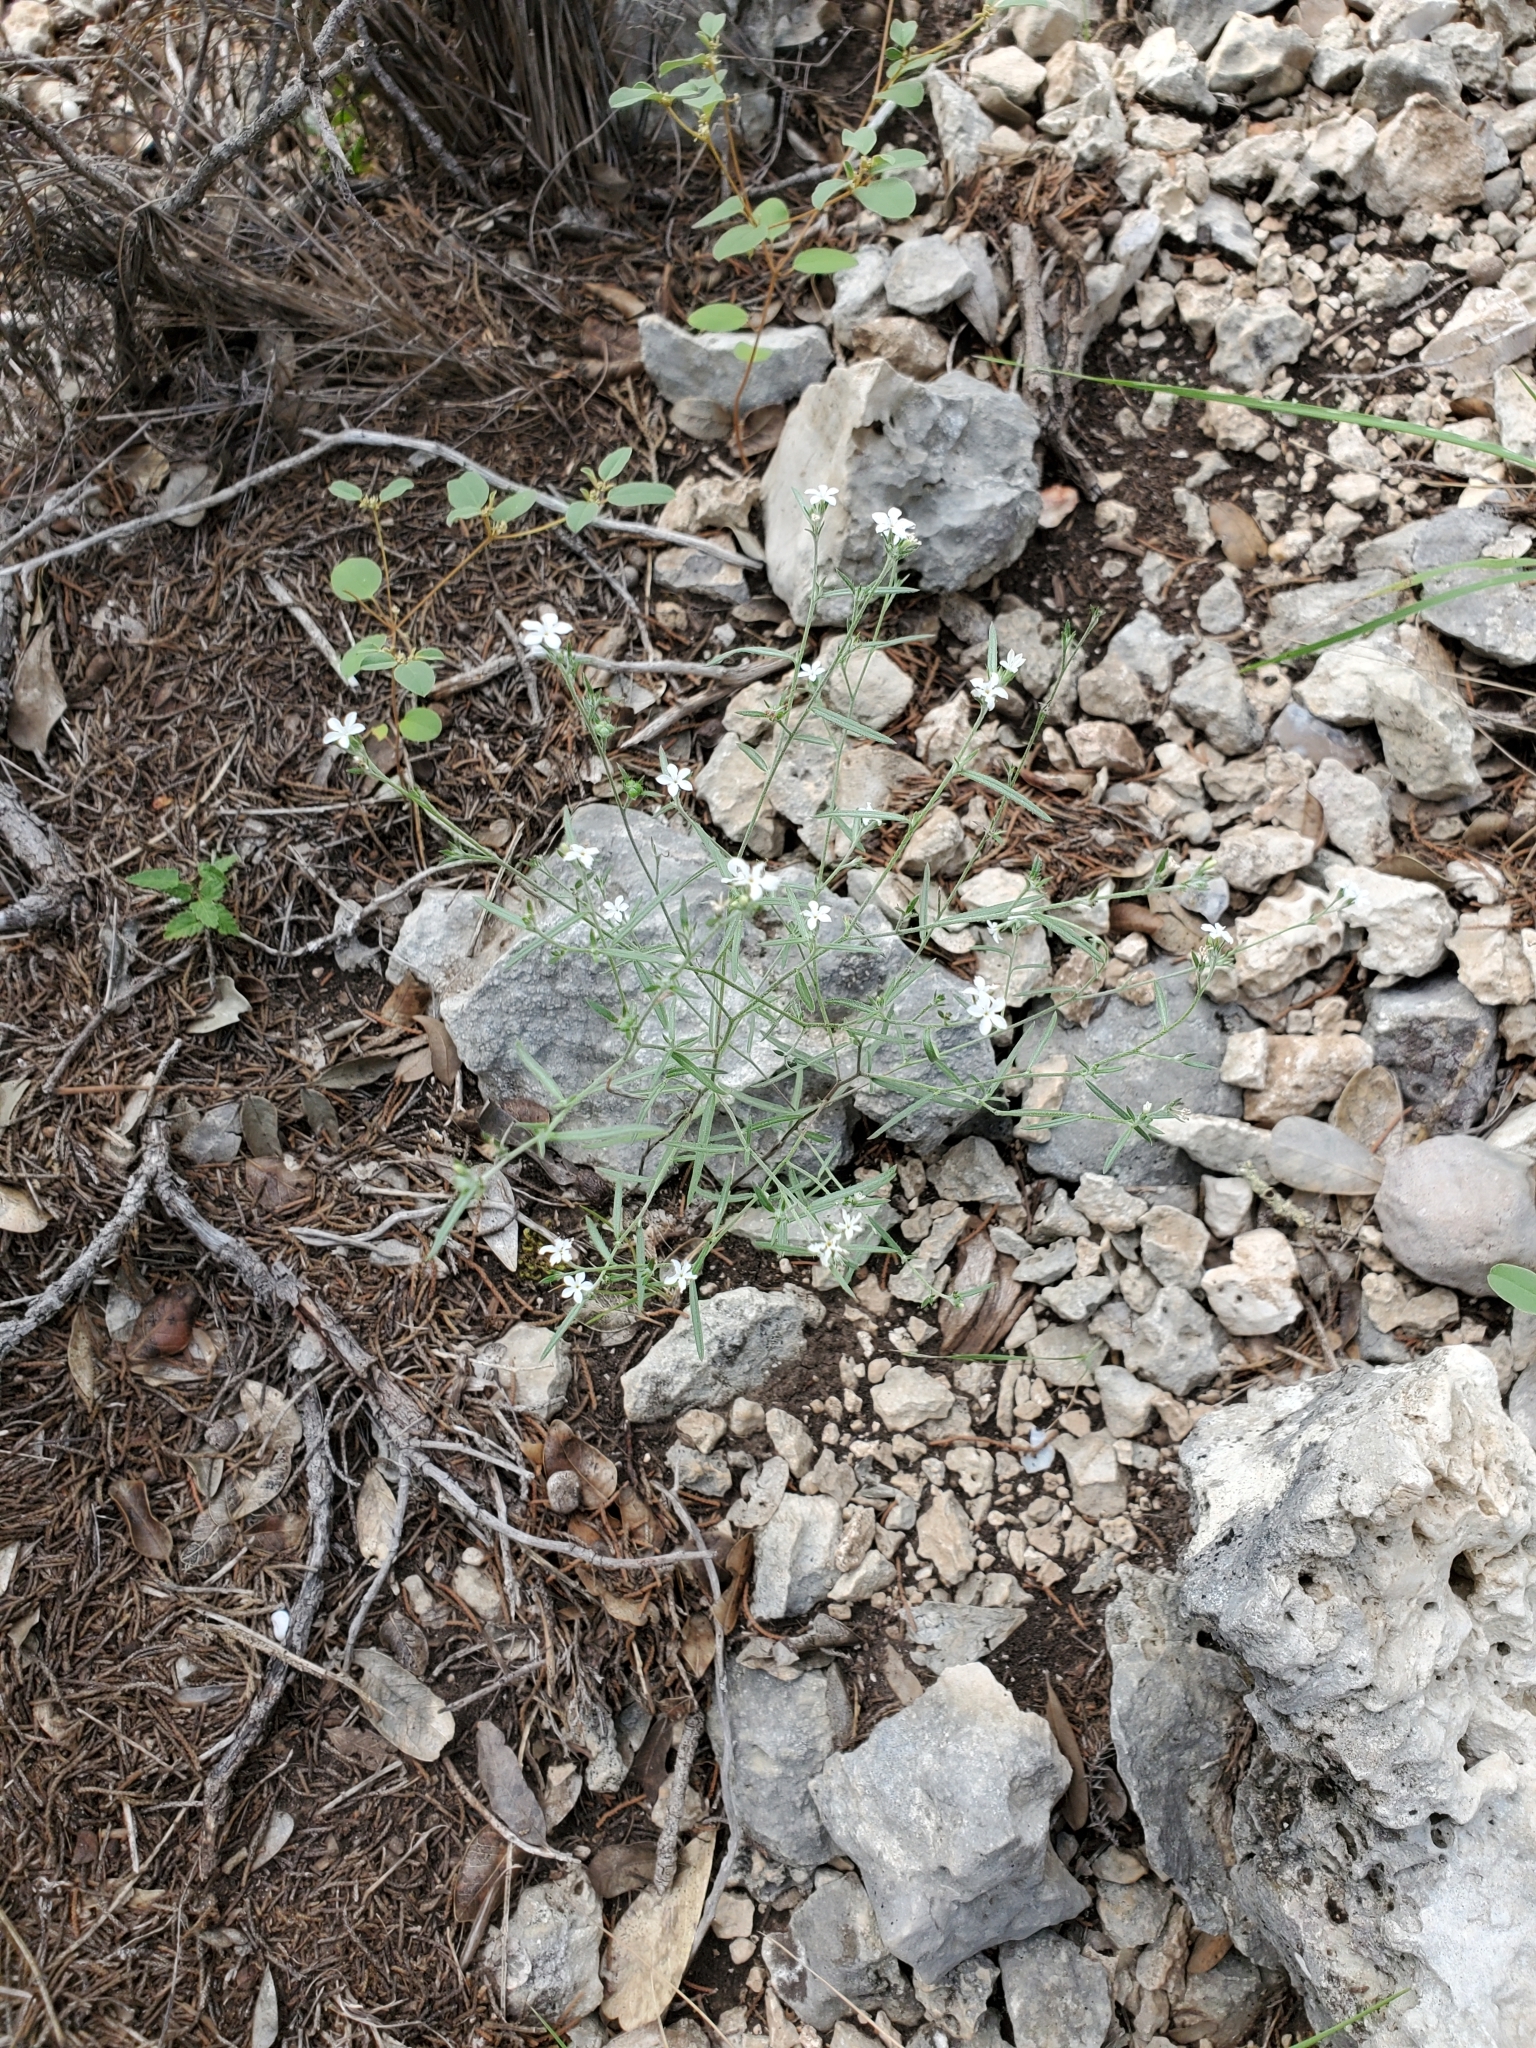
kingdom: Plantae
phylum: Tracheophyta
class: Magnoliopsida
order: Boraginales
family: Heliotropiaceae
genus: Euploca
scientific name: Euploca tenella
